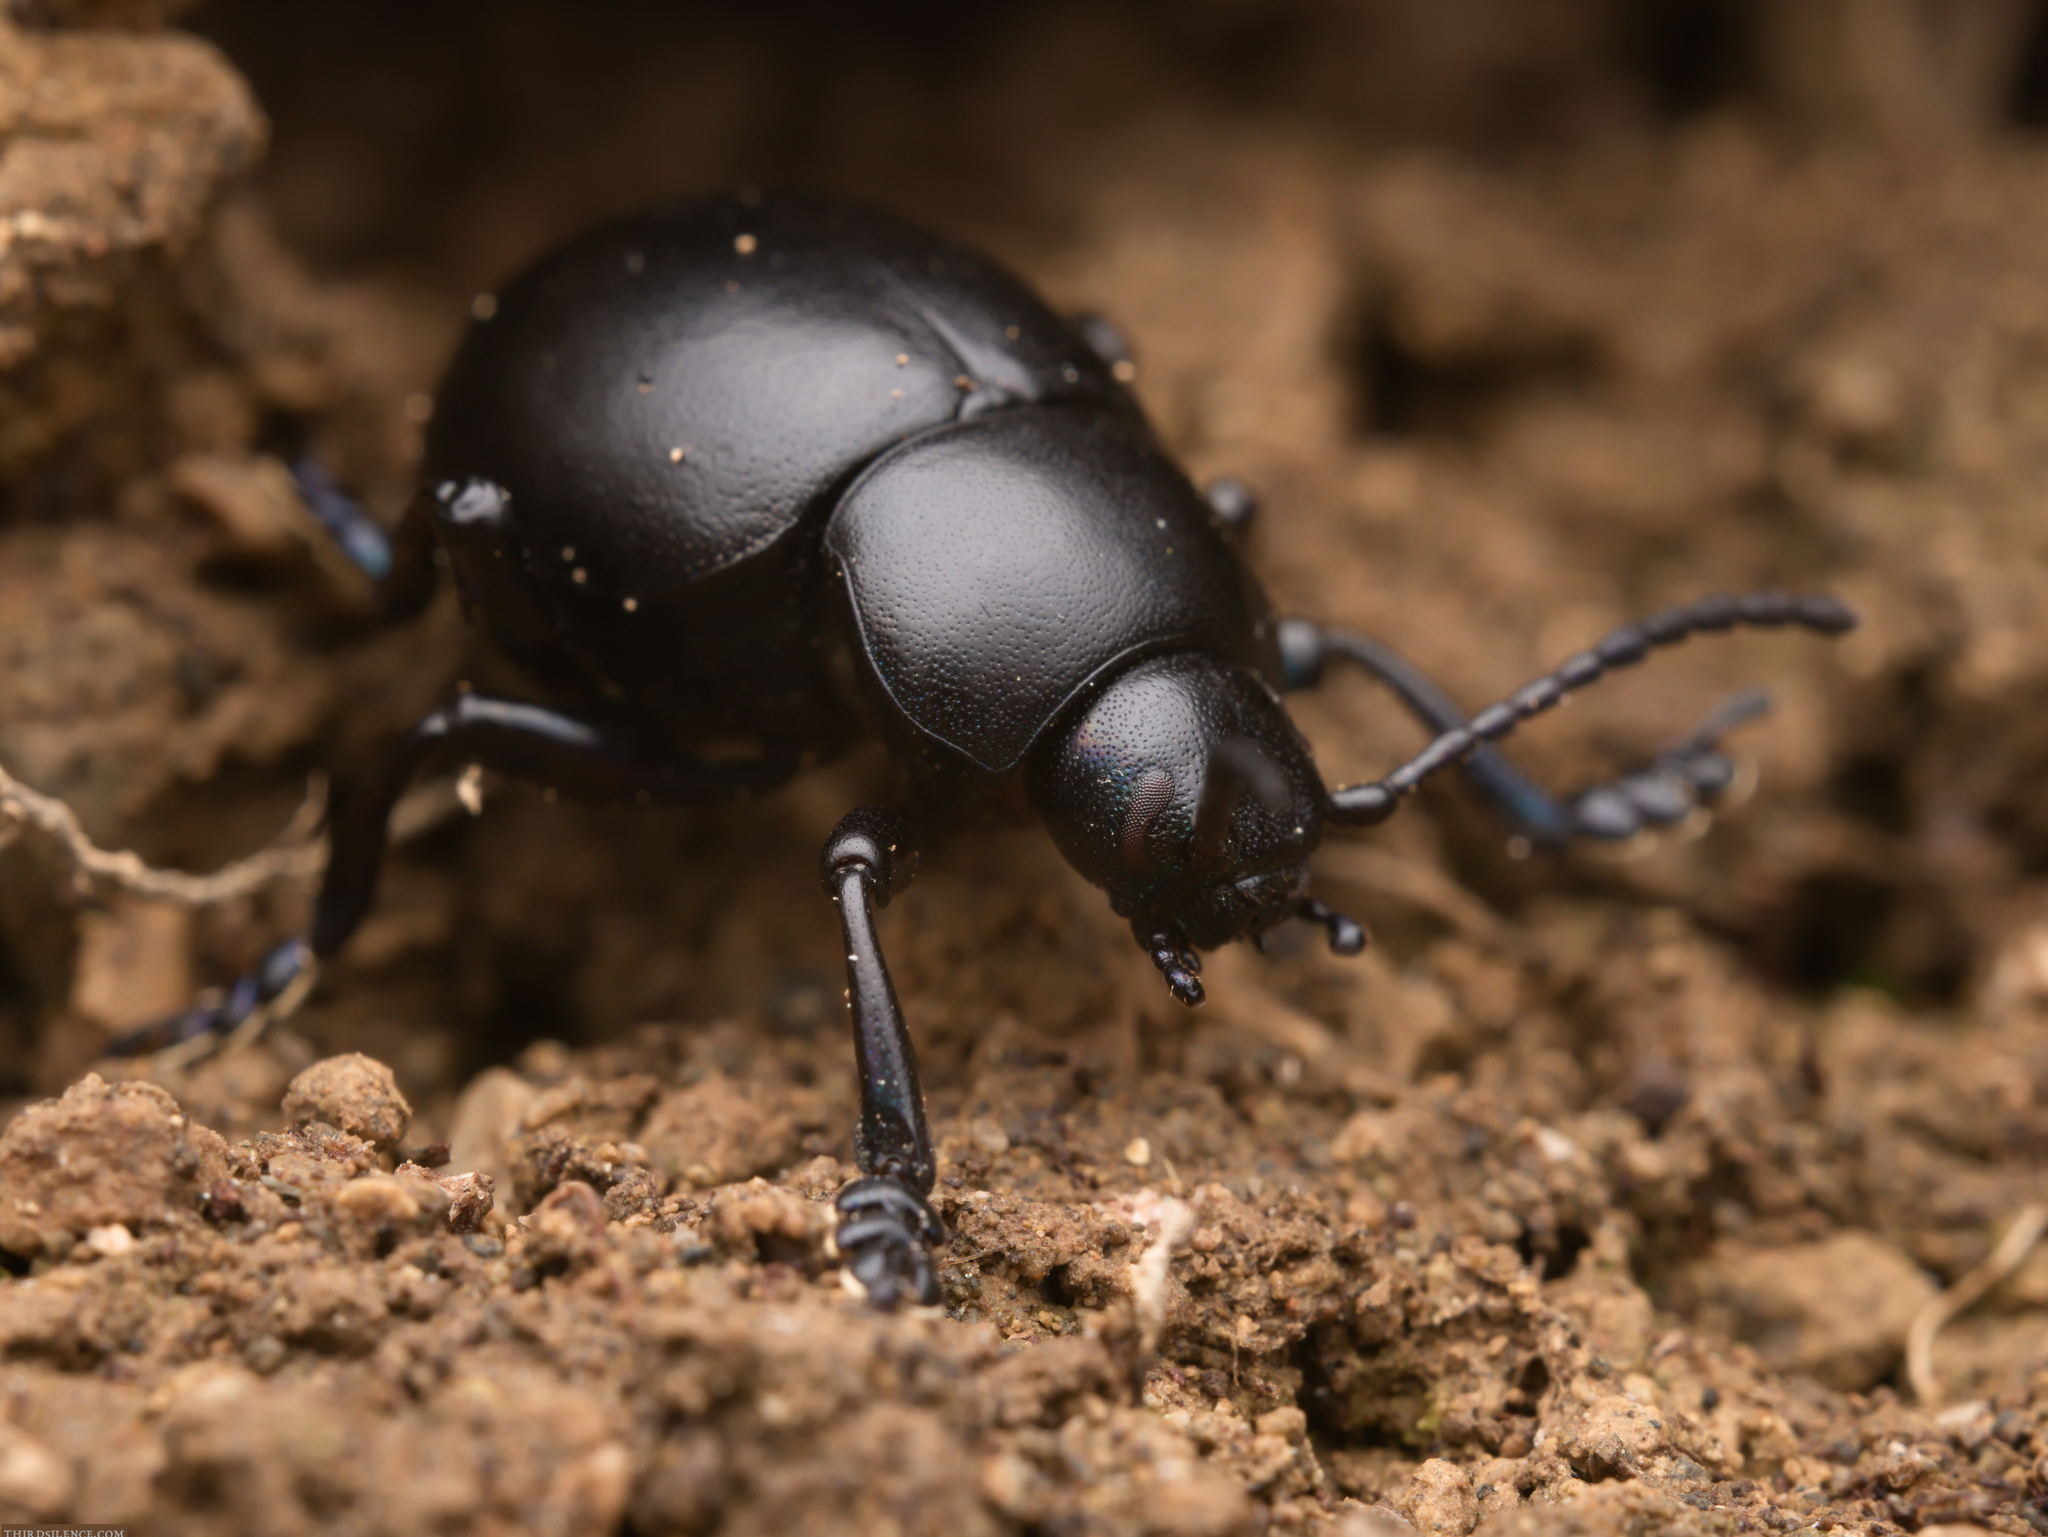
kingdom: Animalia
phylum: Arthropoda
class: Insecta
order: Coleoptera
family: Chrysomelidae
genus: Timarcha
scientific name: Timarcha nicaeensis
